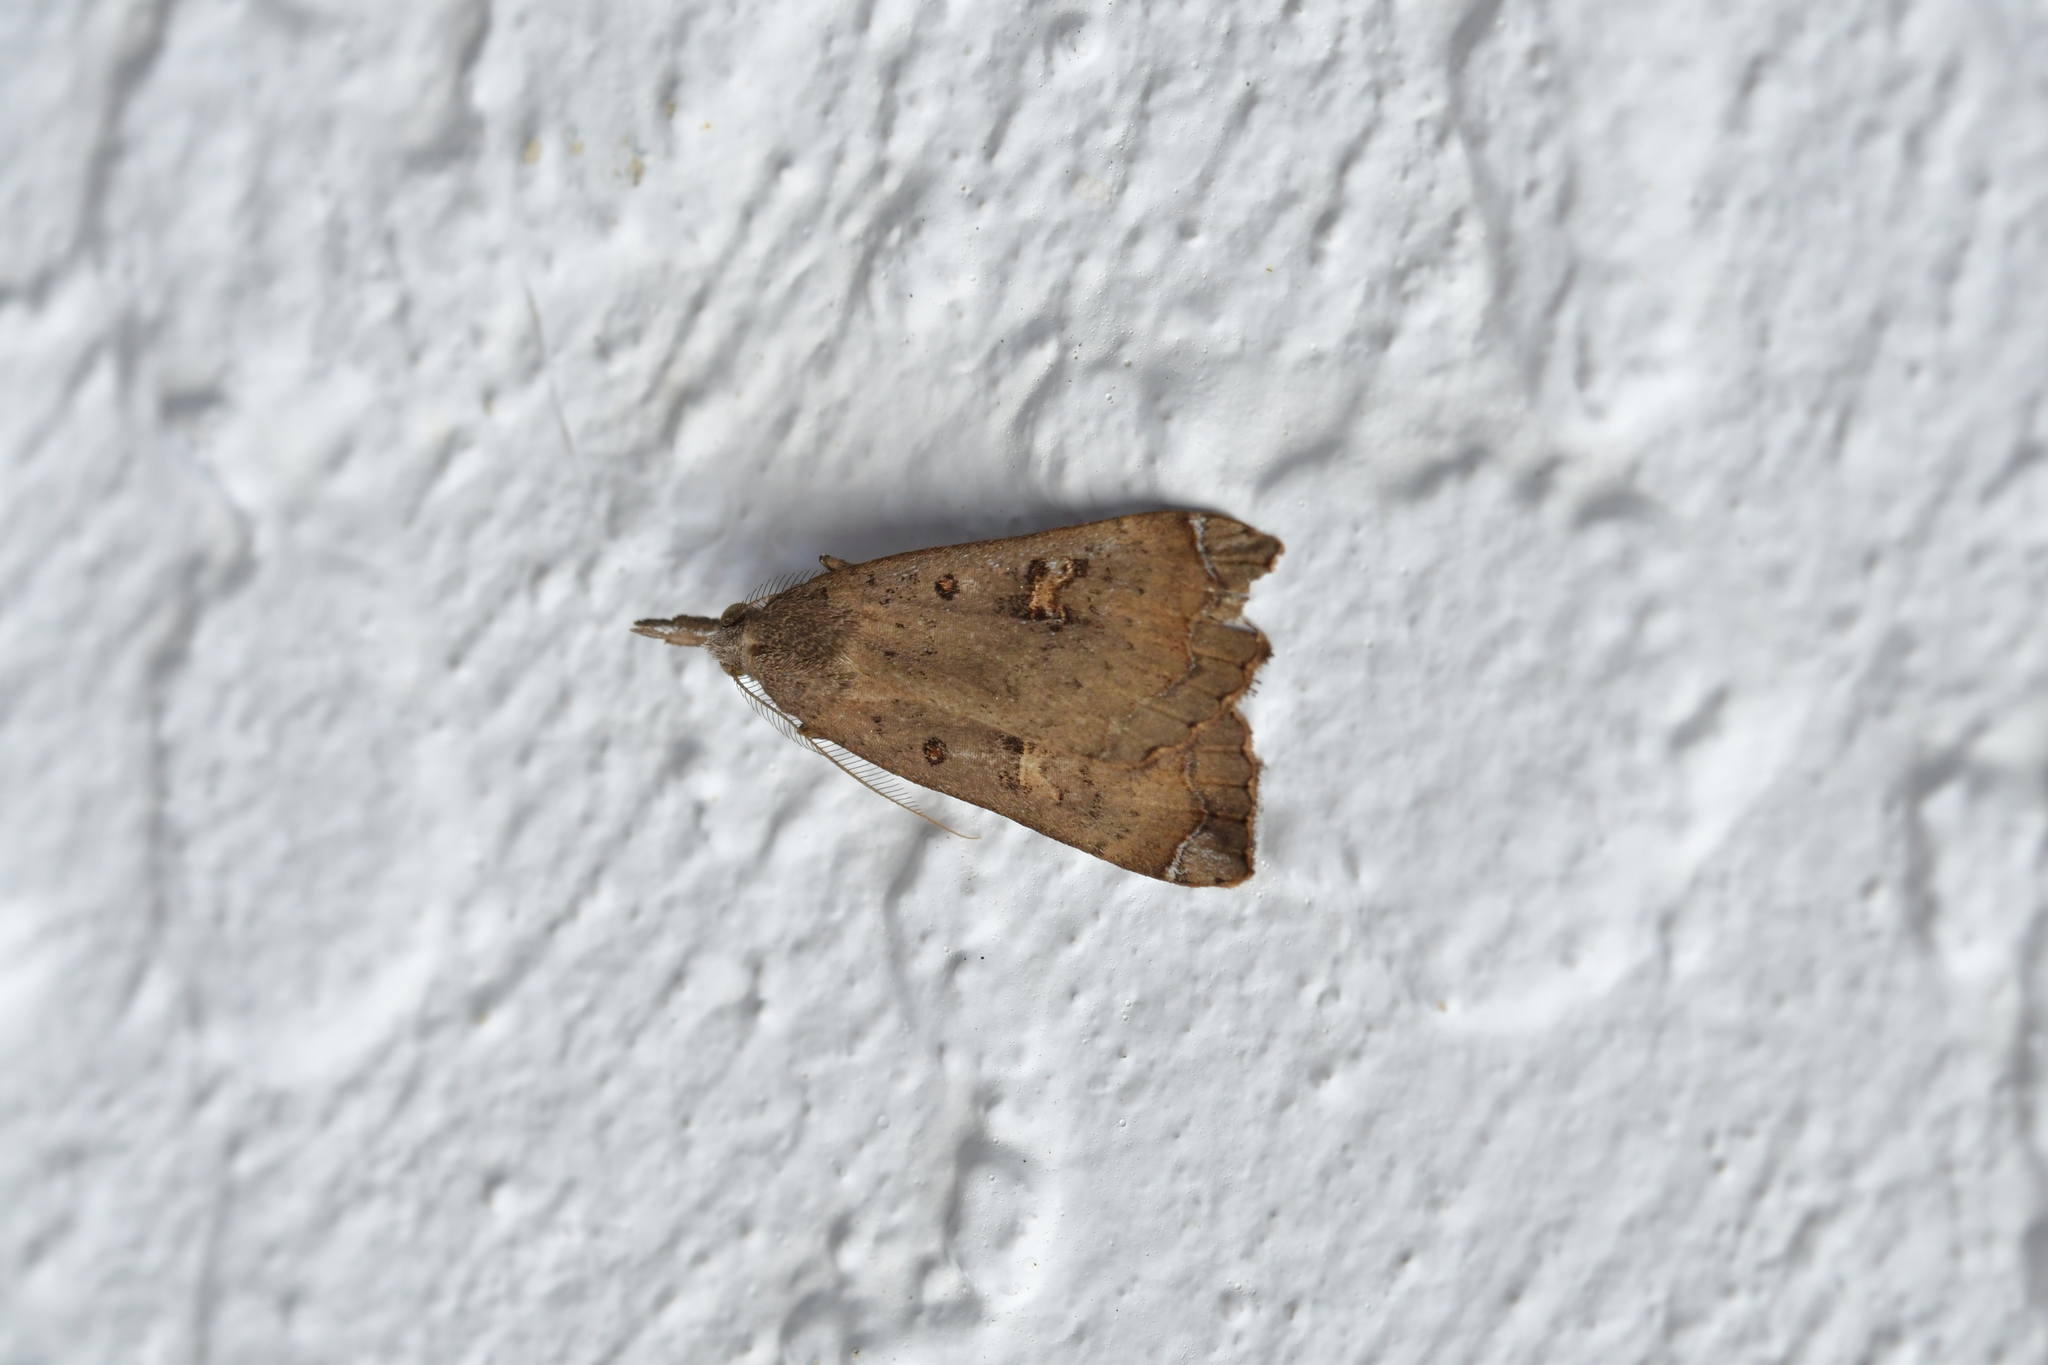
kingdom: Animalia
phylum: Arthropoda
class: Insecta
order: Lepidoptera
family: Erebidae
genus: Rhapsa
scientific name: Rhapsa scotosialis
